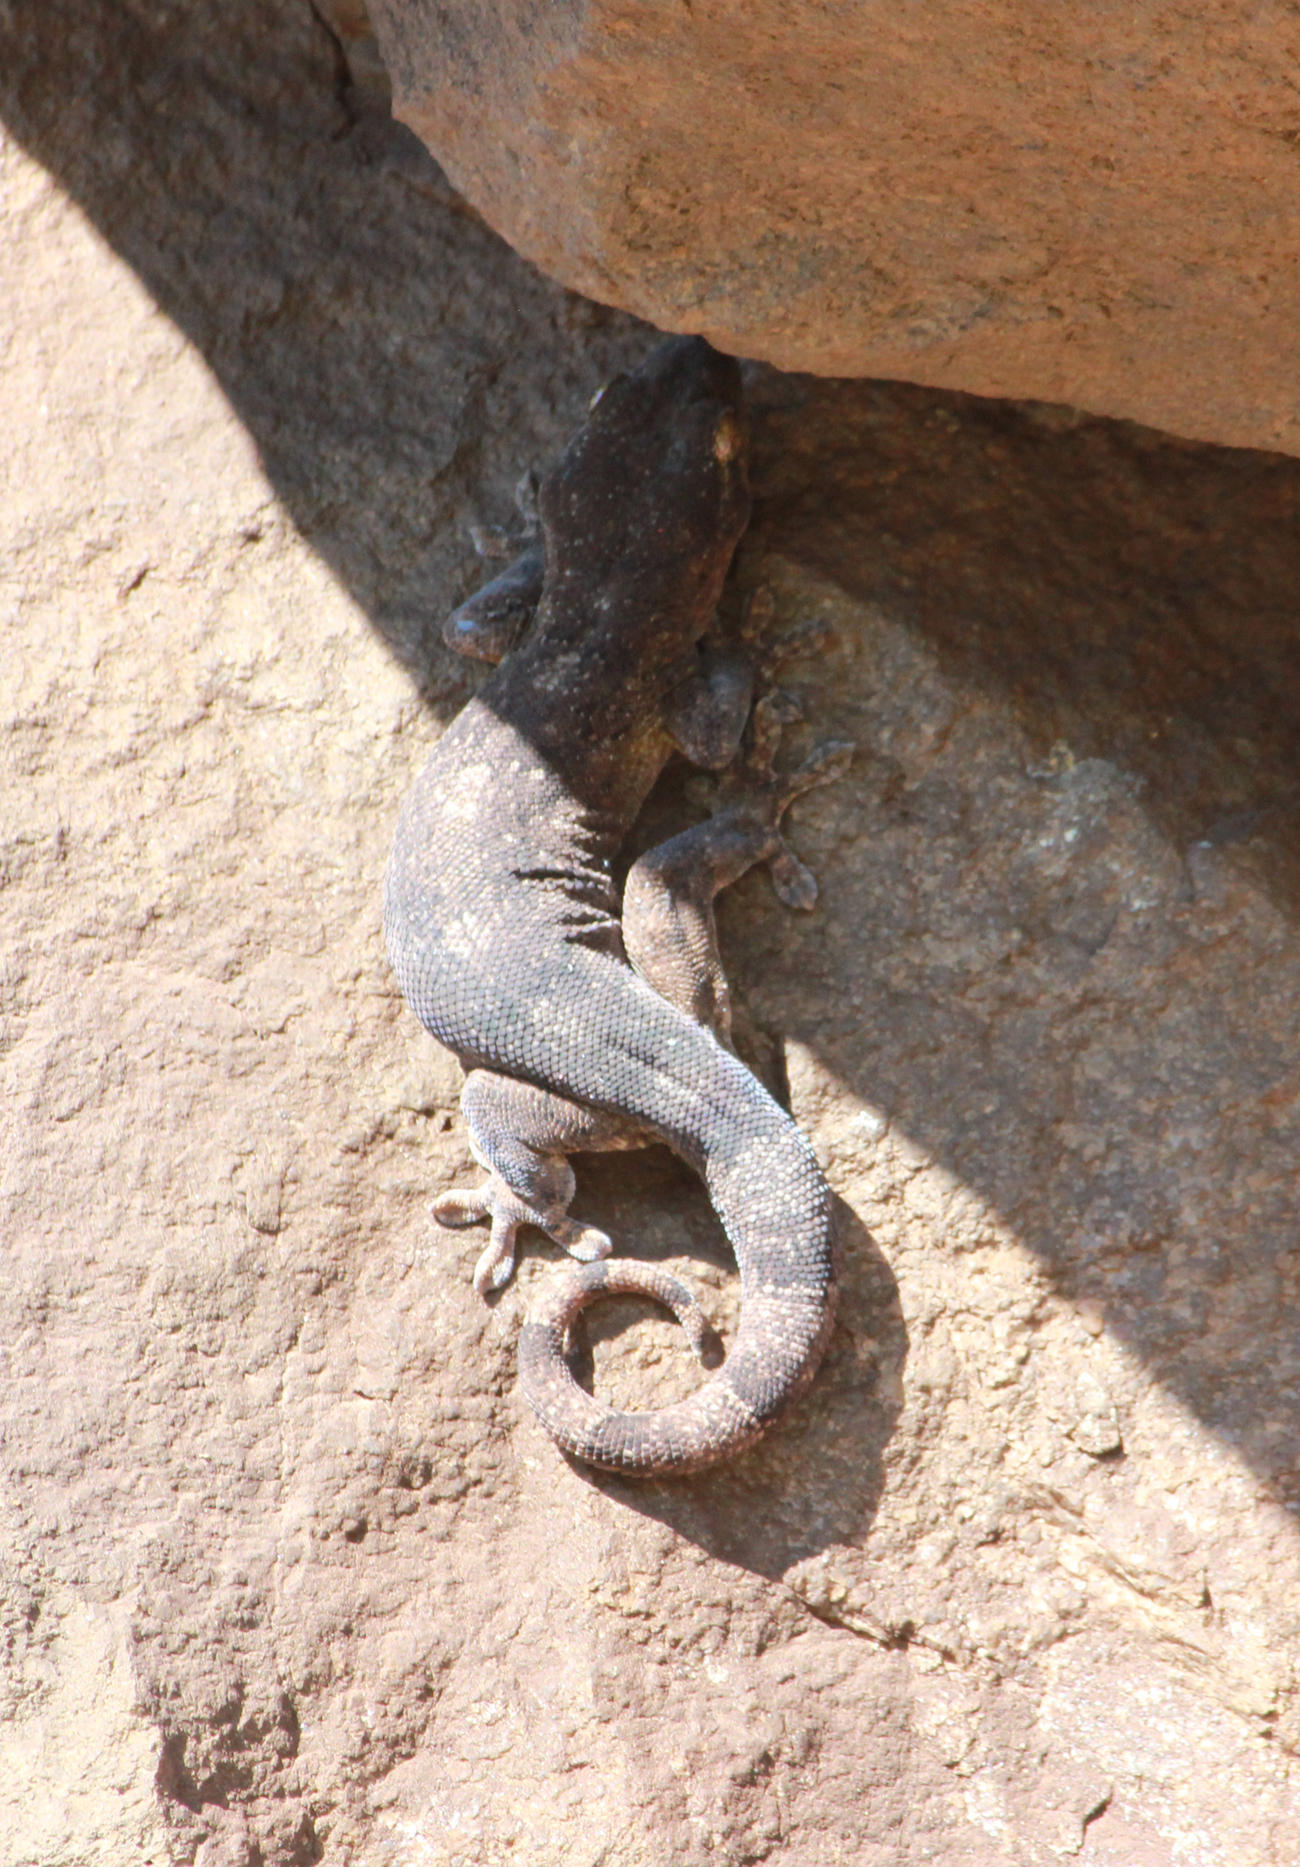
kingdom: Animalia
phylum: Chordata
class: Squamata
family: Gekkonidae
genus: Homopholis
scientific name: Homopholis walbergii
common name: Wahlberg’s velvet gecko
